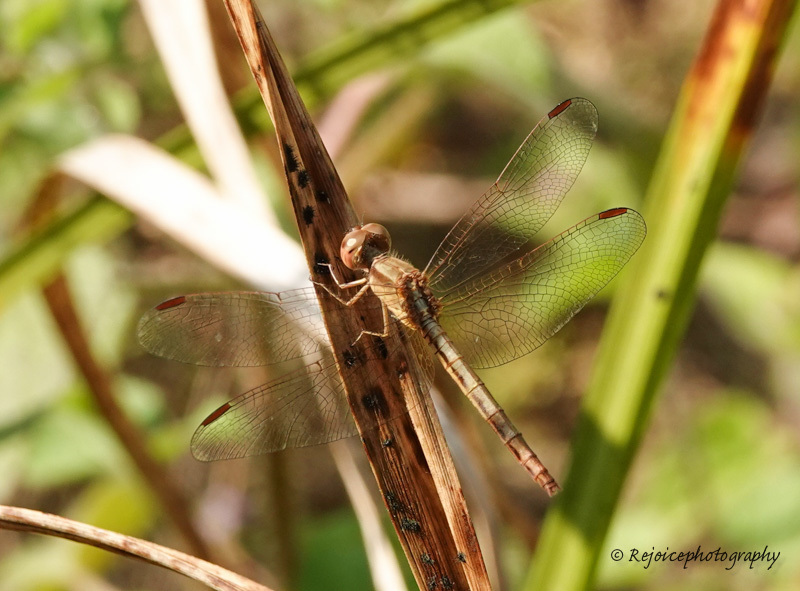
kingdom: Animalia
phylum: Arthropoda
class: Insecta
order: Odonata
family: Libellulidae
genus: Neurothemis
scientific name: Neurothemis intermedia
